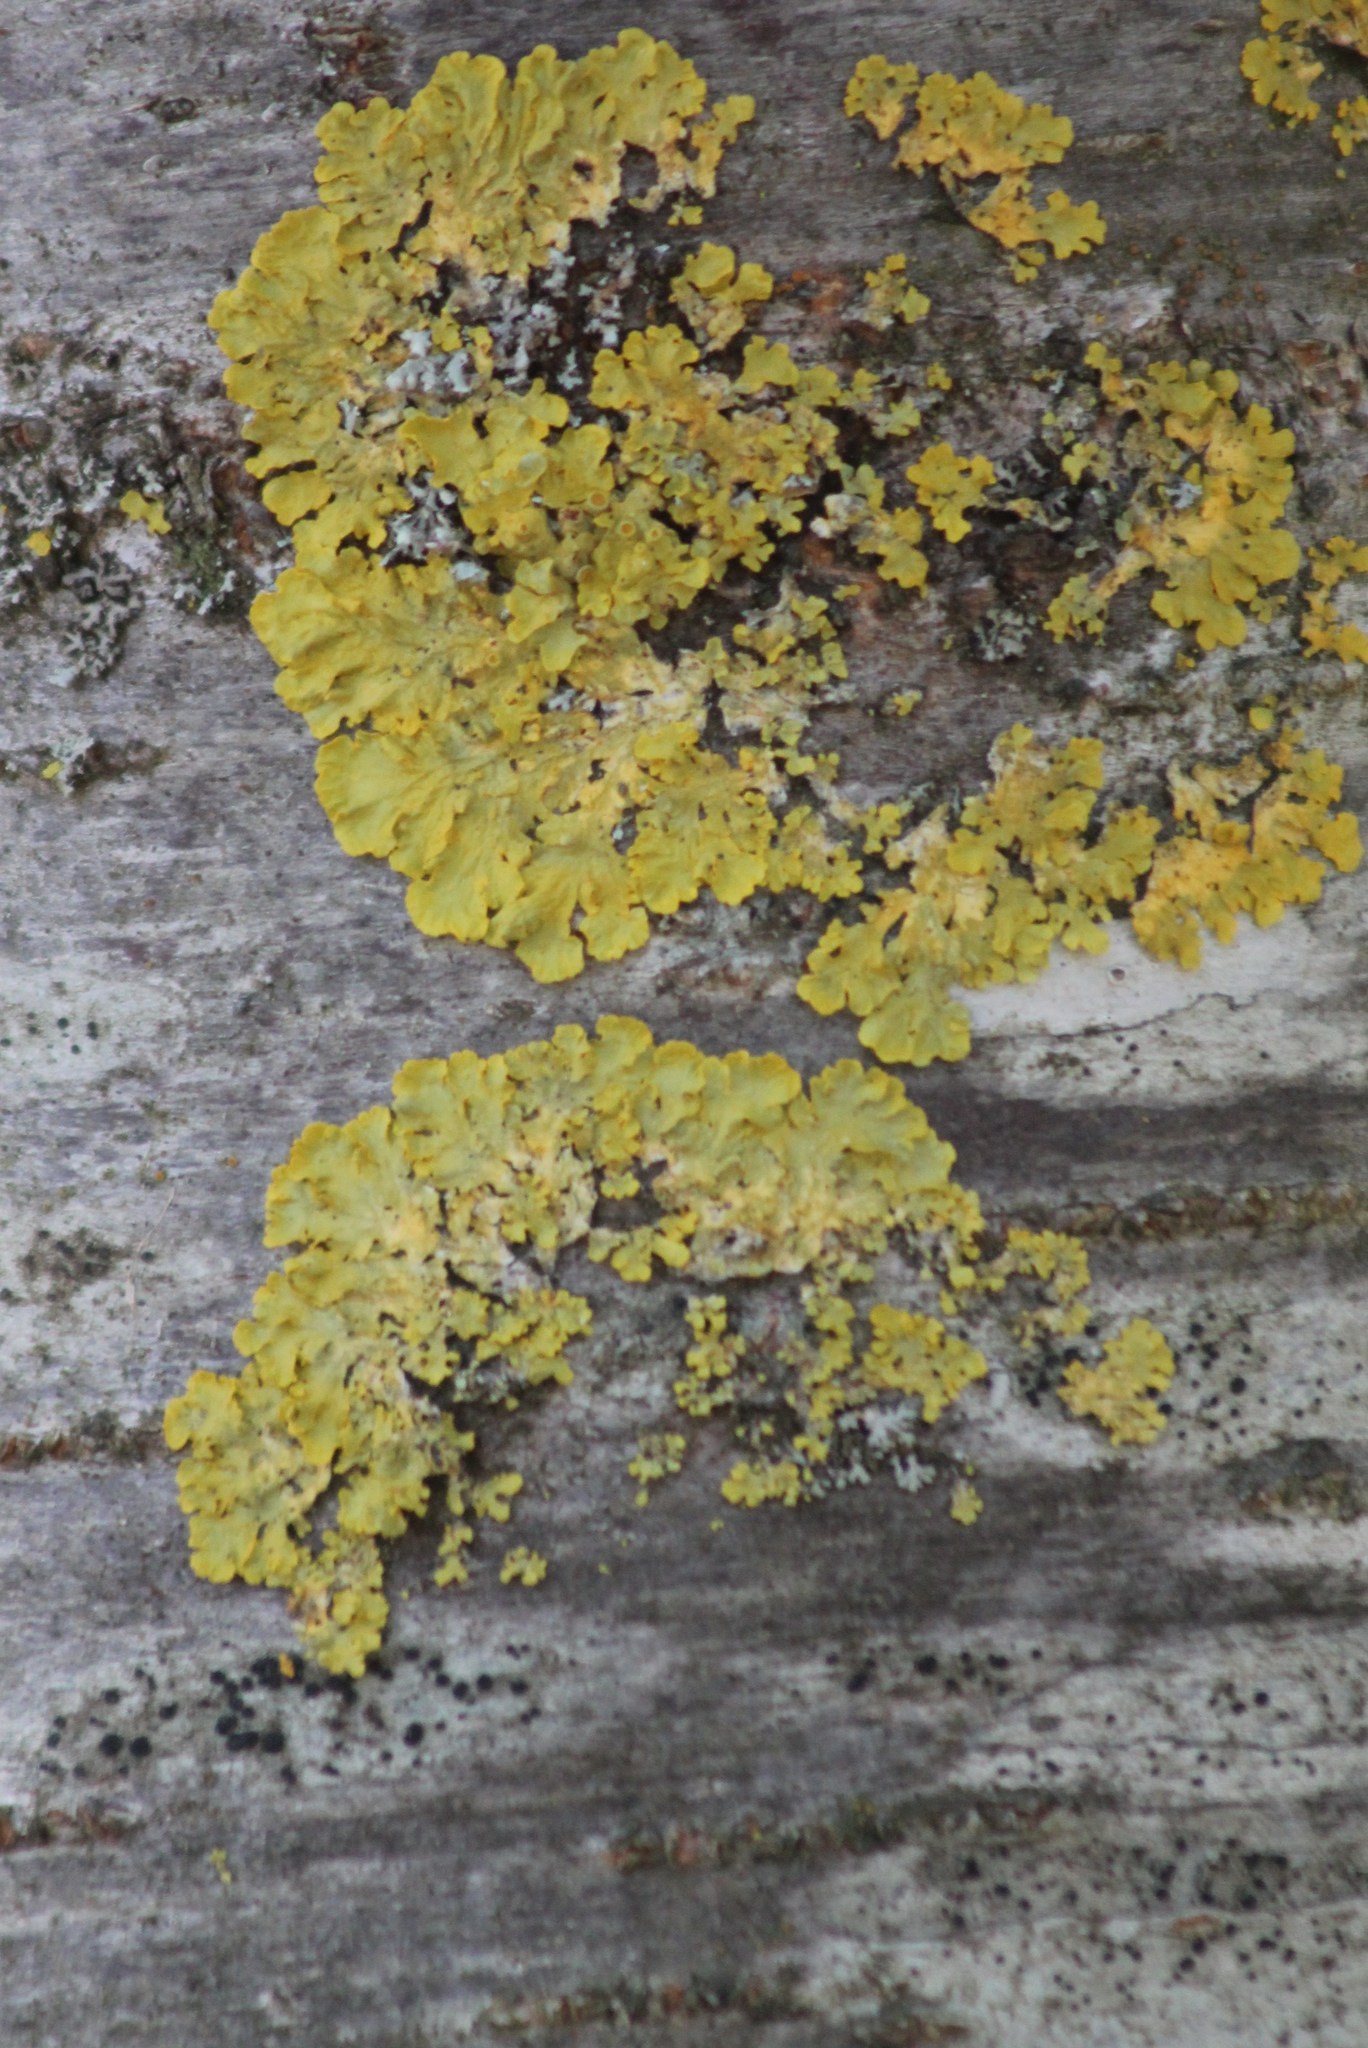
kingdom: Fungi
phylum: Ascomycota
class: Lecanoromycetes
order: Teloschistales
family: Teloschistaceae
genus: Xanthoria
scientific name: Xanthoria parietina
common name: Common orange lichen
